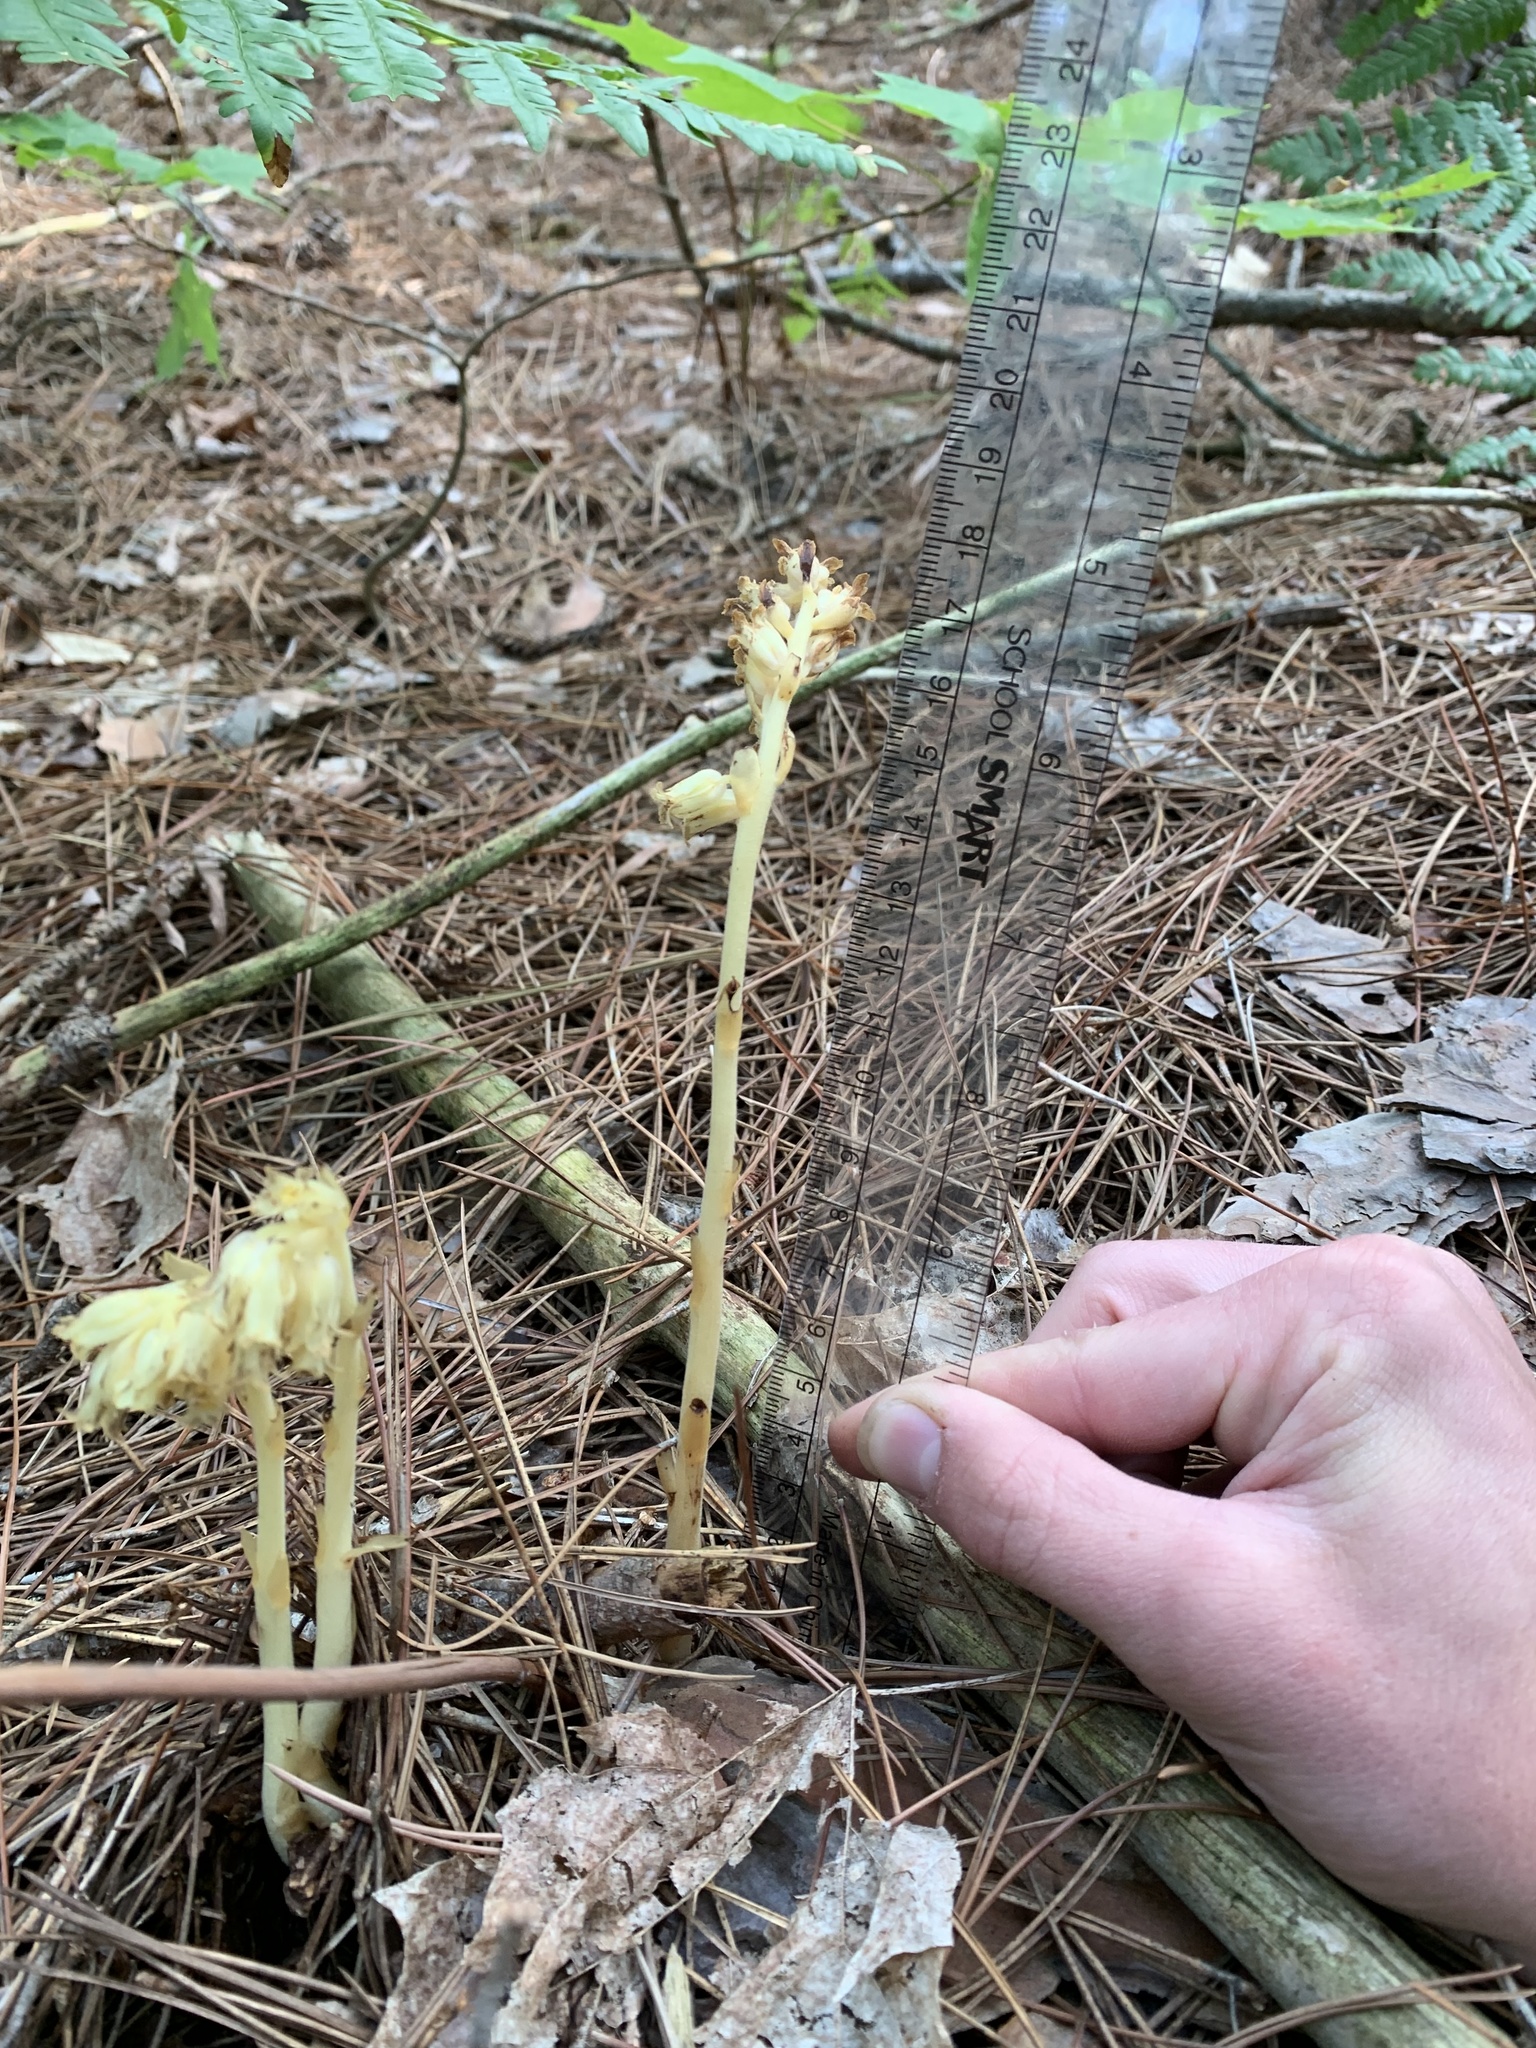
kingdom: Plantae
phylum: Tracheophyta
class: Magnoliopsida
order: Ericales
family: Ericaceae
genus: Hypopitys
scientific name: Hypopitys monotropa
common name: Yellow bird's-nest
